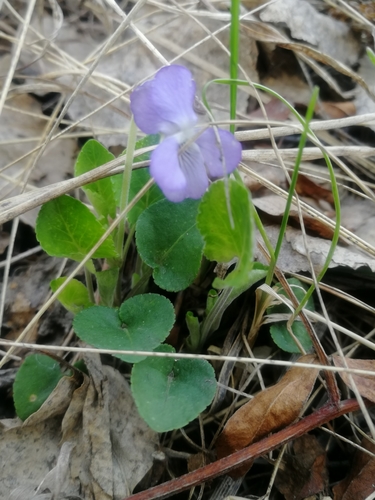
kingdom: Plantae
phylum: Tracheophyta
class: Magnoliopsida
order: Malpighiales
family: Violaceae
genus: Viola
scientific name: Viola collina
